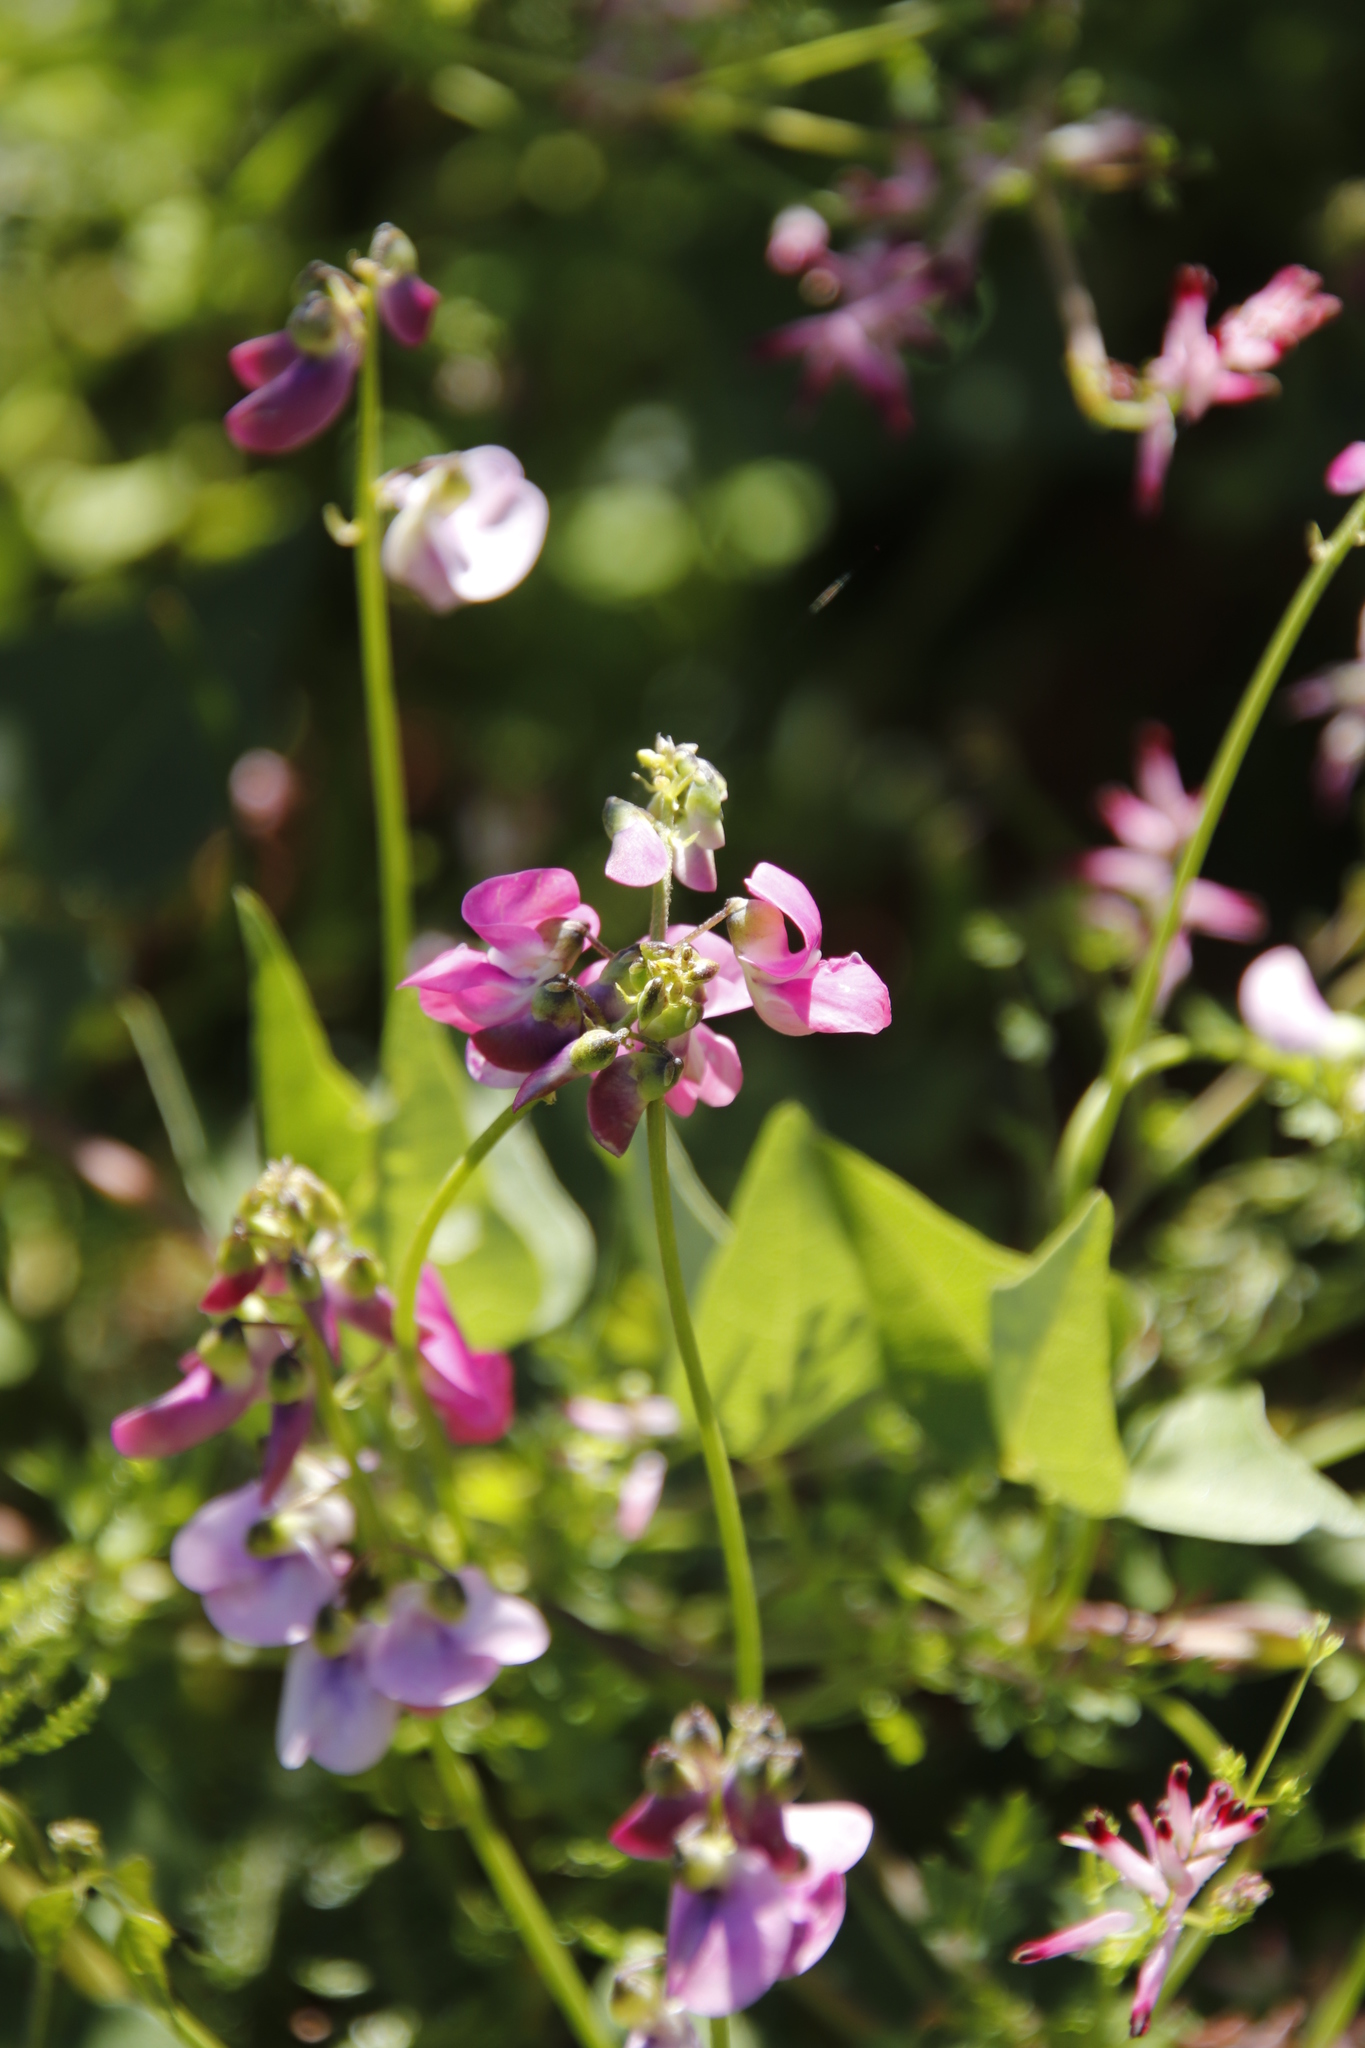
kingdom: Plantae
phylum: Tracheophyta
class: Magnoliopsida
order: Fabales
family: Fabaceae
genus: Dipogon
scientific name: Dipogon lignosus
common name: Okie bean
